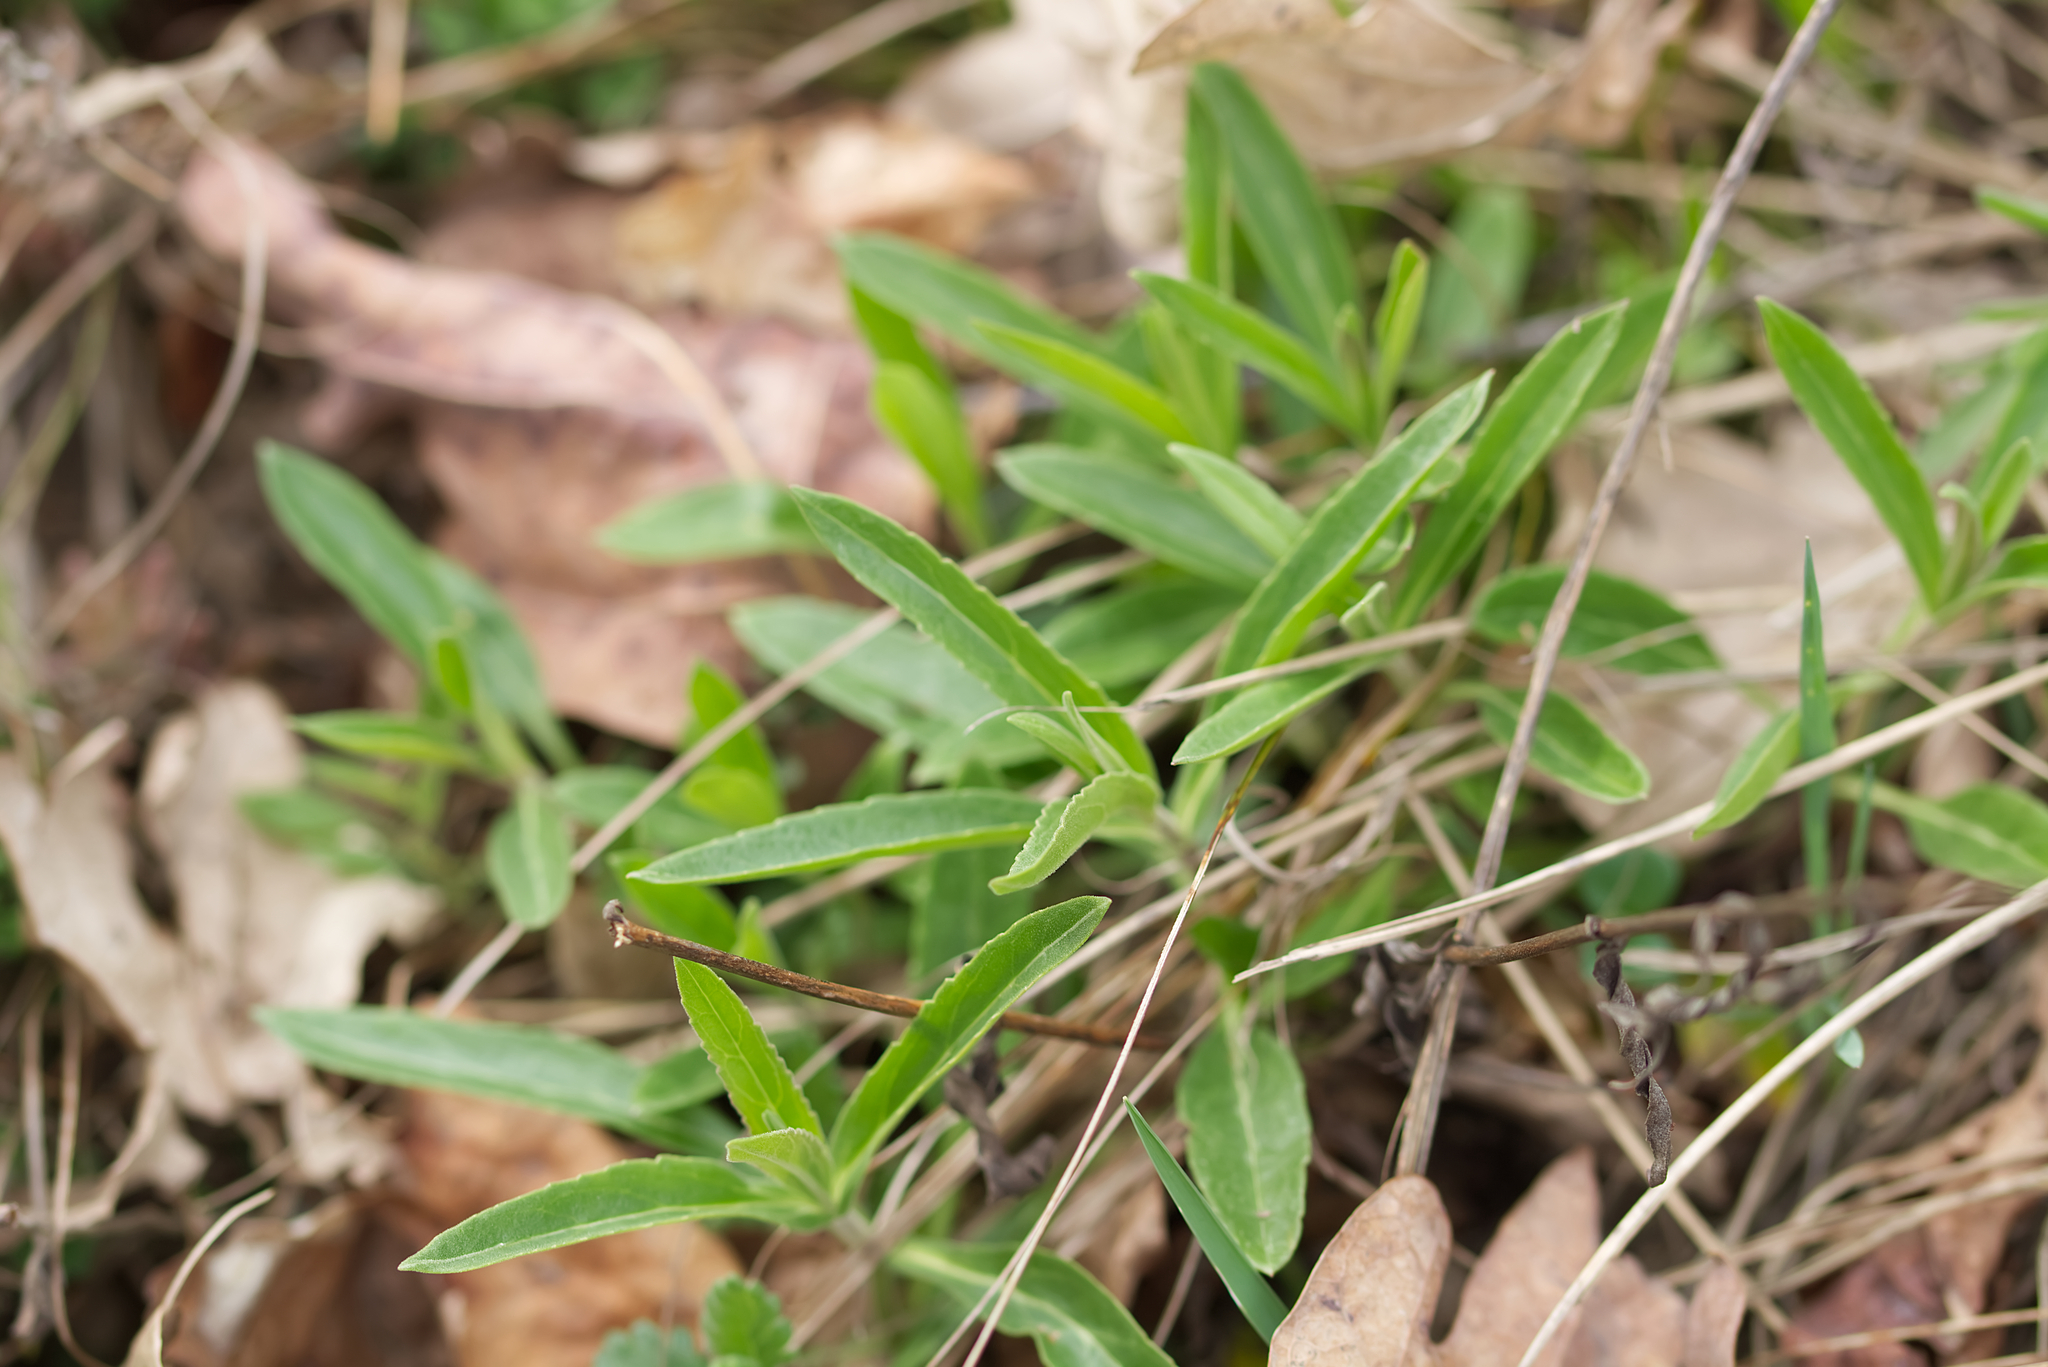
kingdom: Plantae
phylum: Tracheophyta
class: Magnoliopsida
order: Lamiales
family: Plantaginaceae
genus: Veronica
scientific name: Veronica spicata
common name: Spiked speedwell
